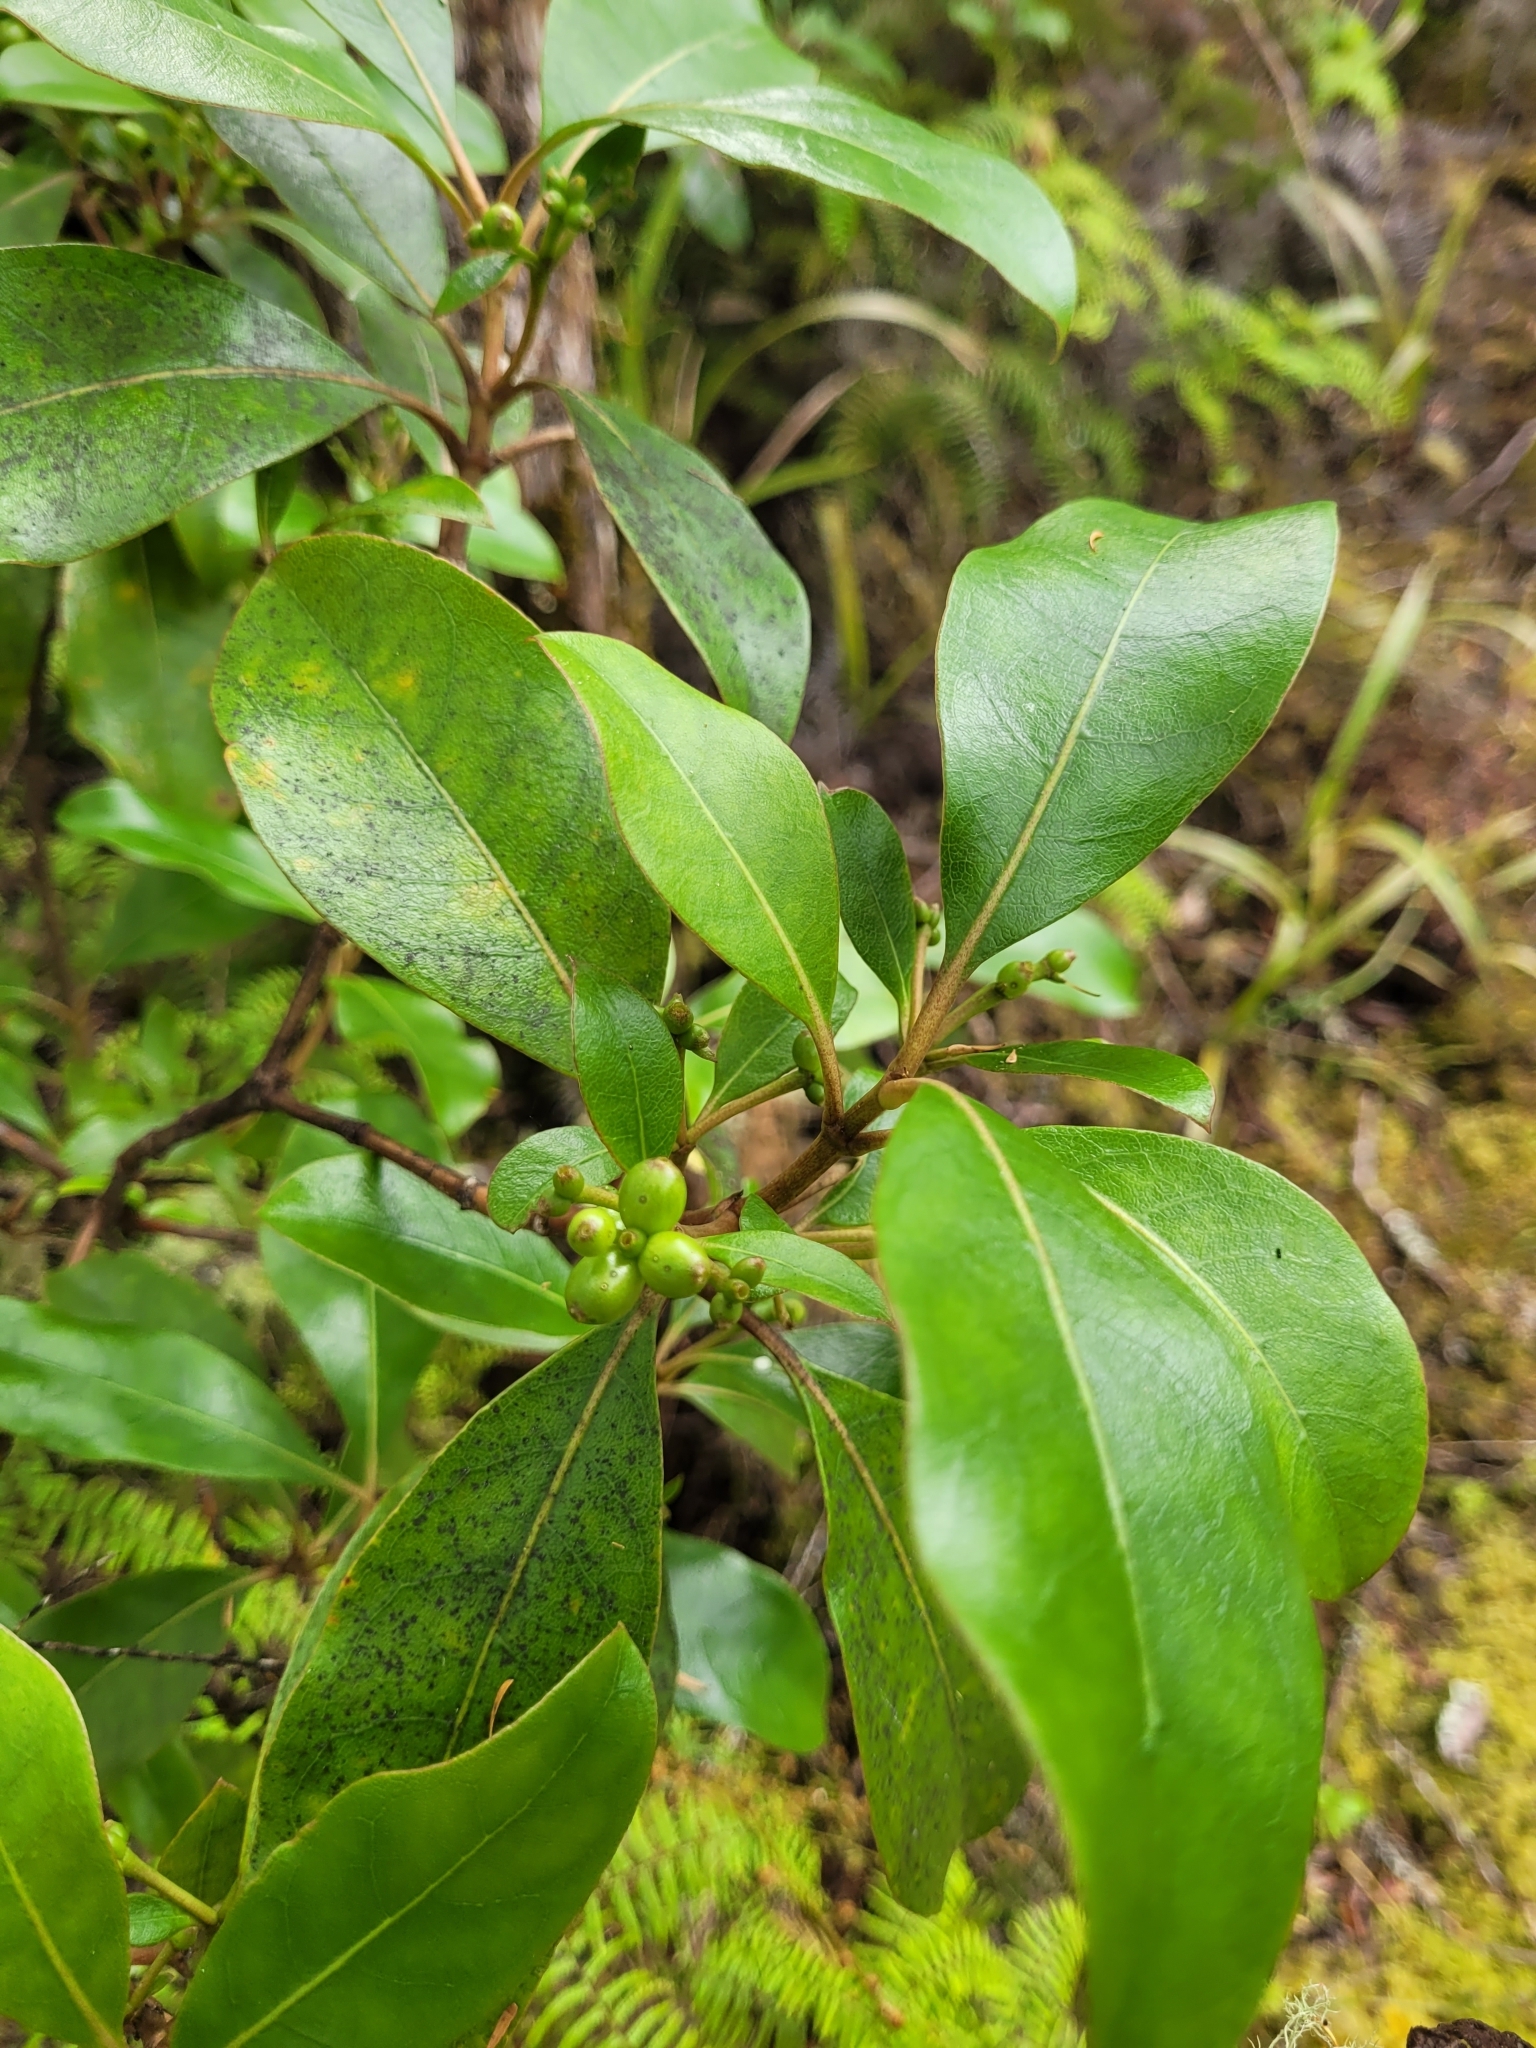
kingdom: Plantae
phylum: Tracheophyta
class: Magnoliopsida
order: Gentianales
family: Rubiaceae
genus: Coprosma
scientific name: Coprosma lucida
